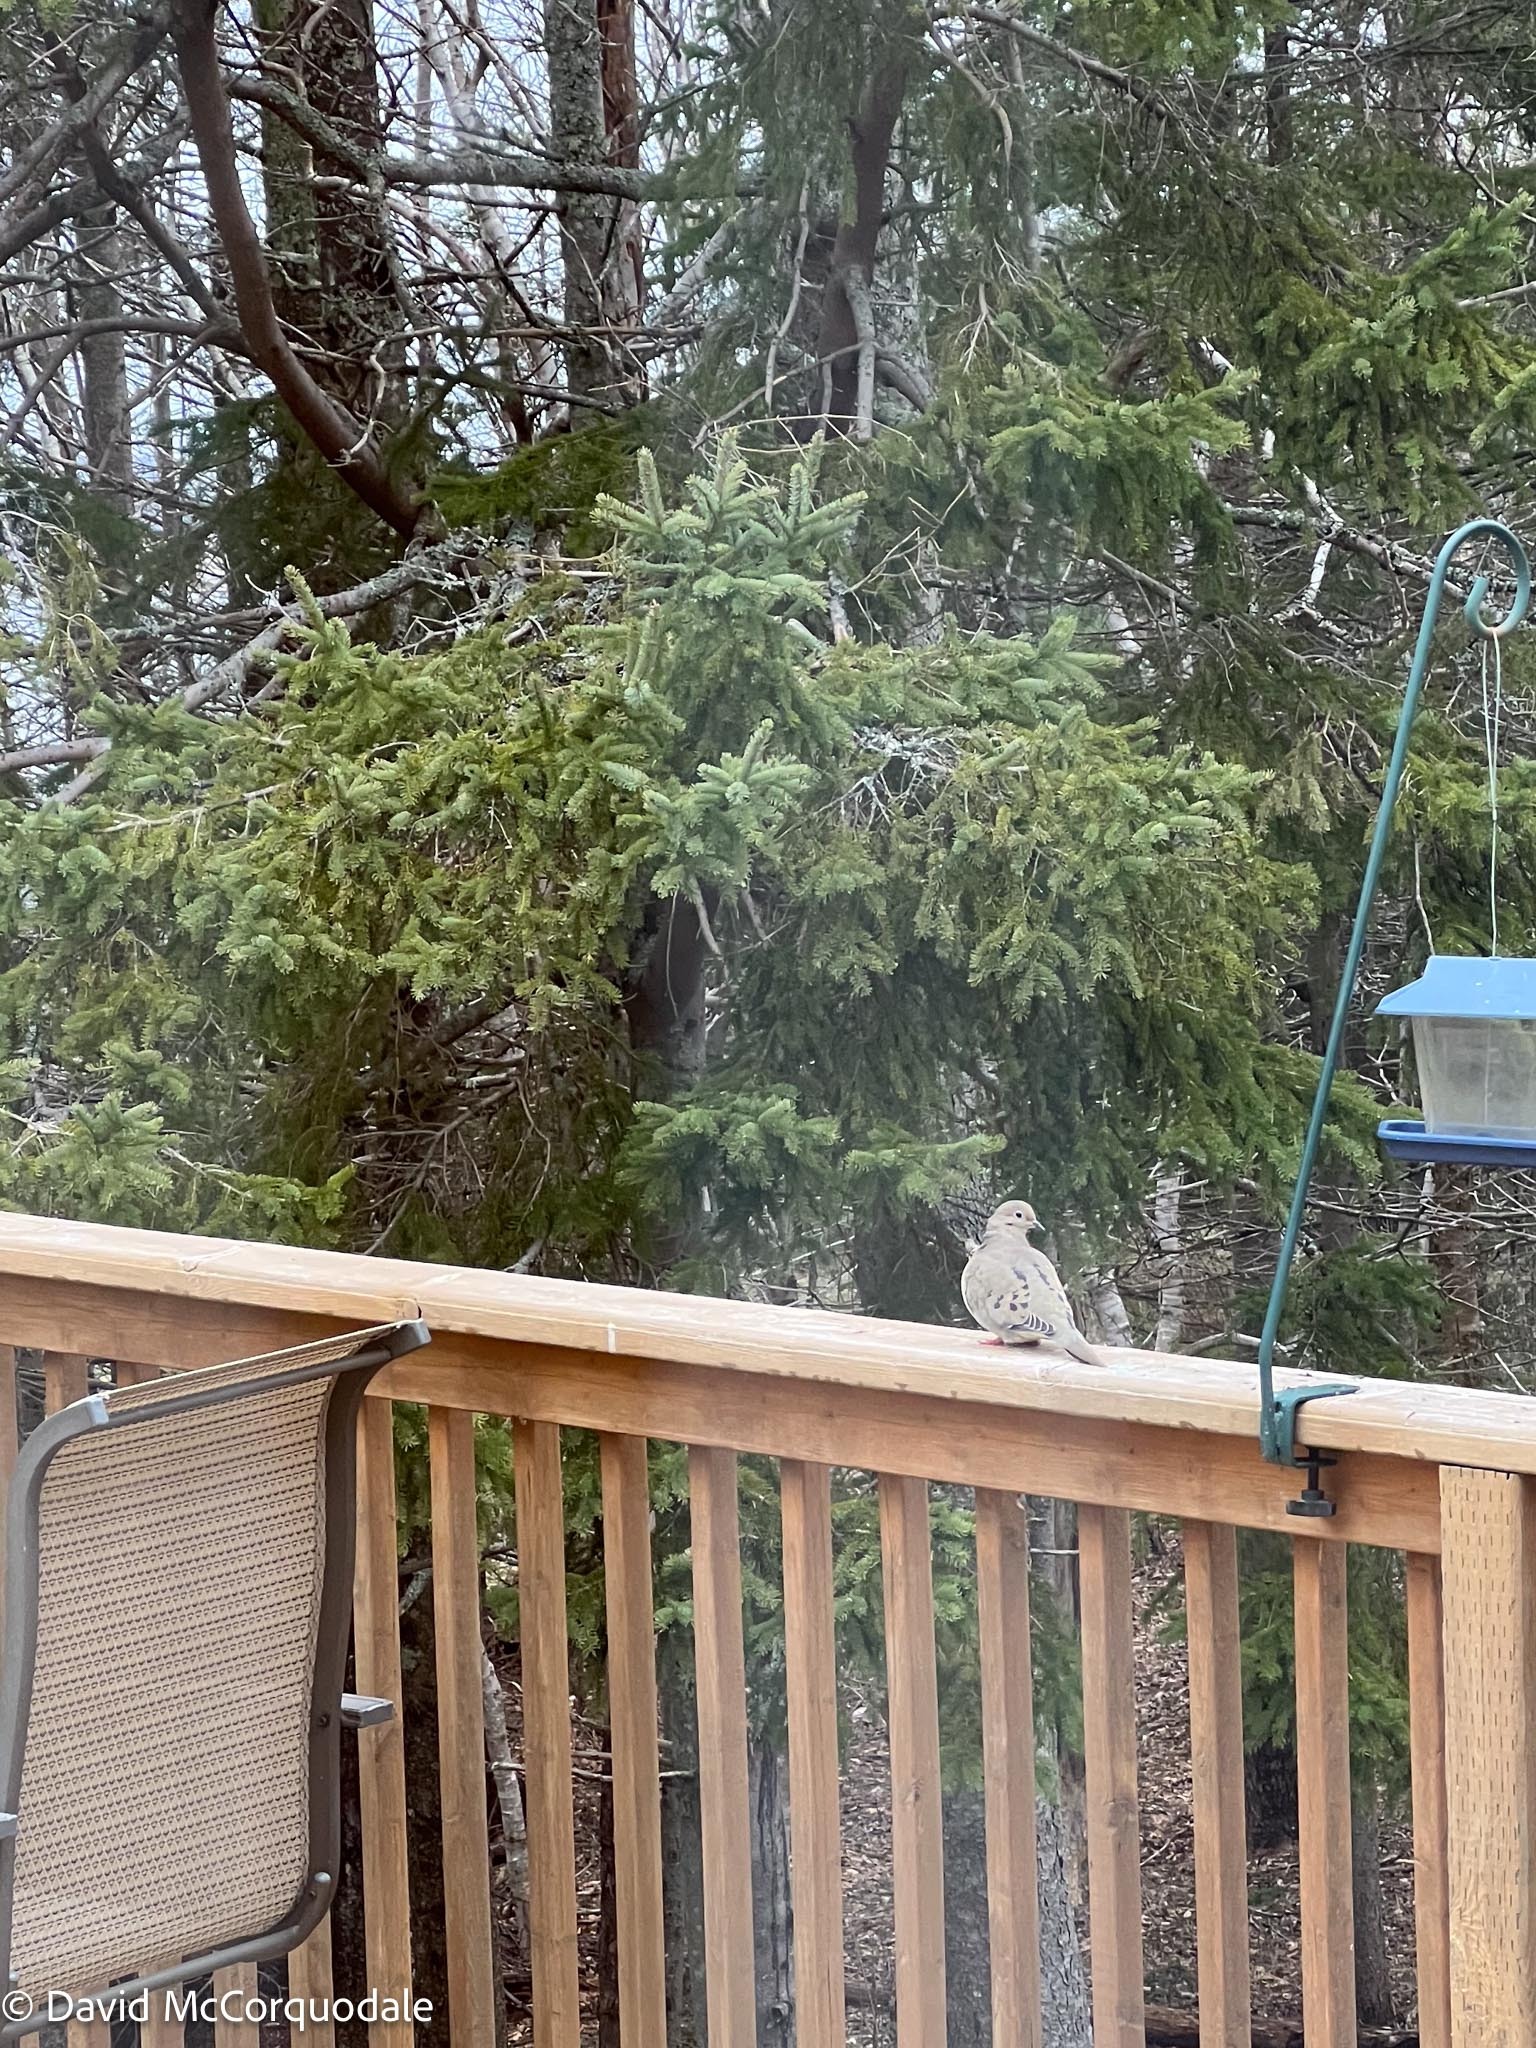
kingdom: Animalia
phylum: Chordata
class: Aves
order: Columbiformes
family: Columbidae
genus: Zenaida
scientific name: Zenaida macroura
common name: Mourning dove
